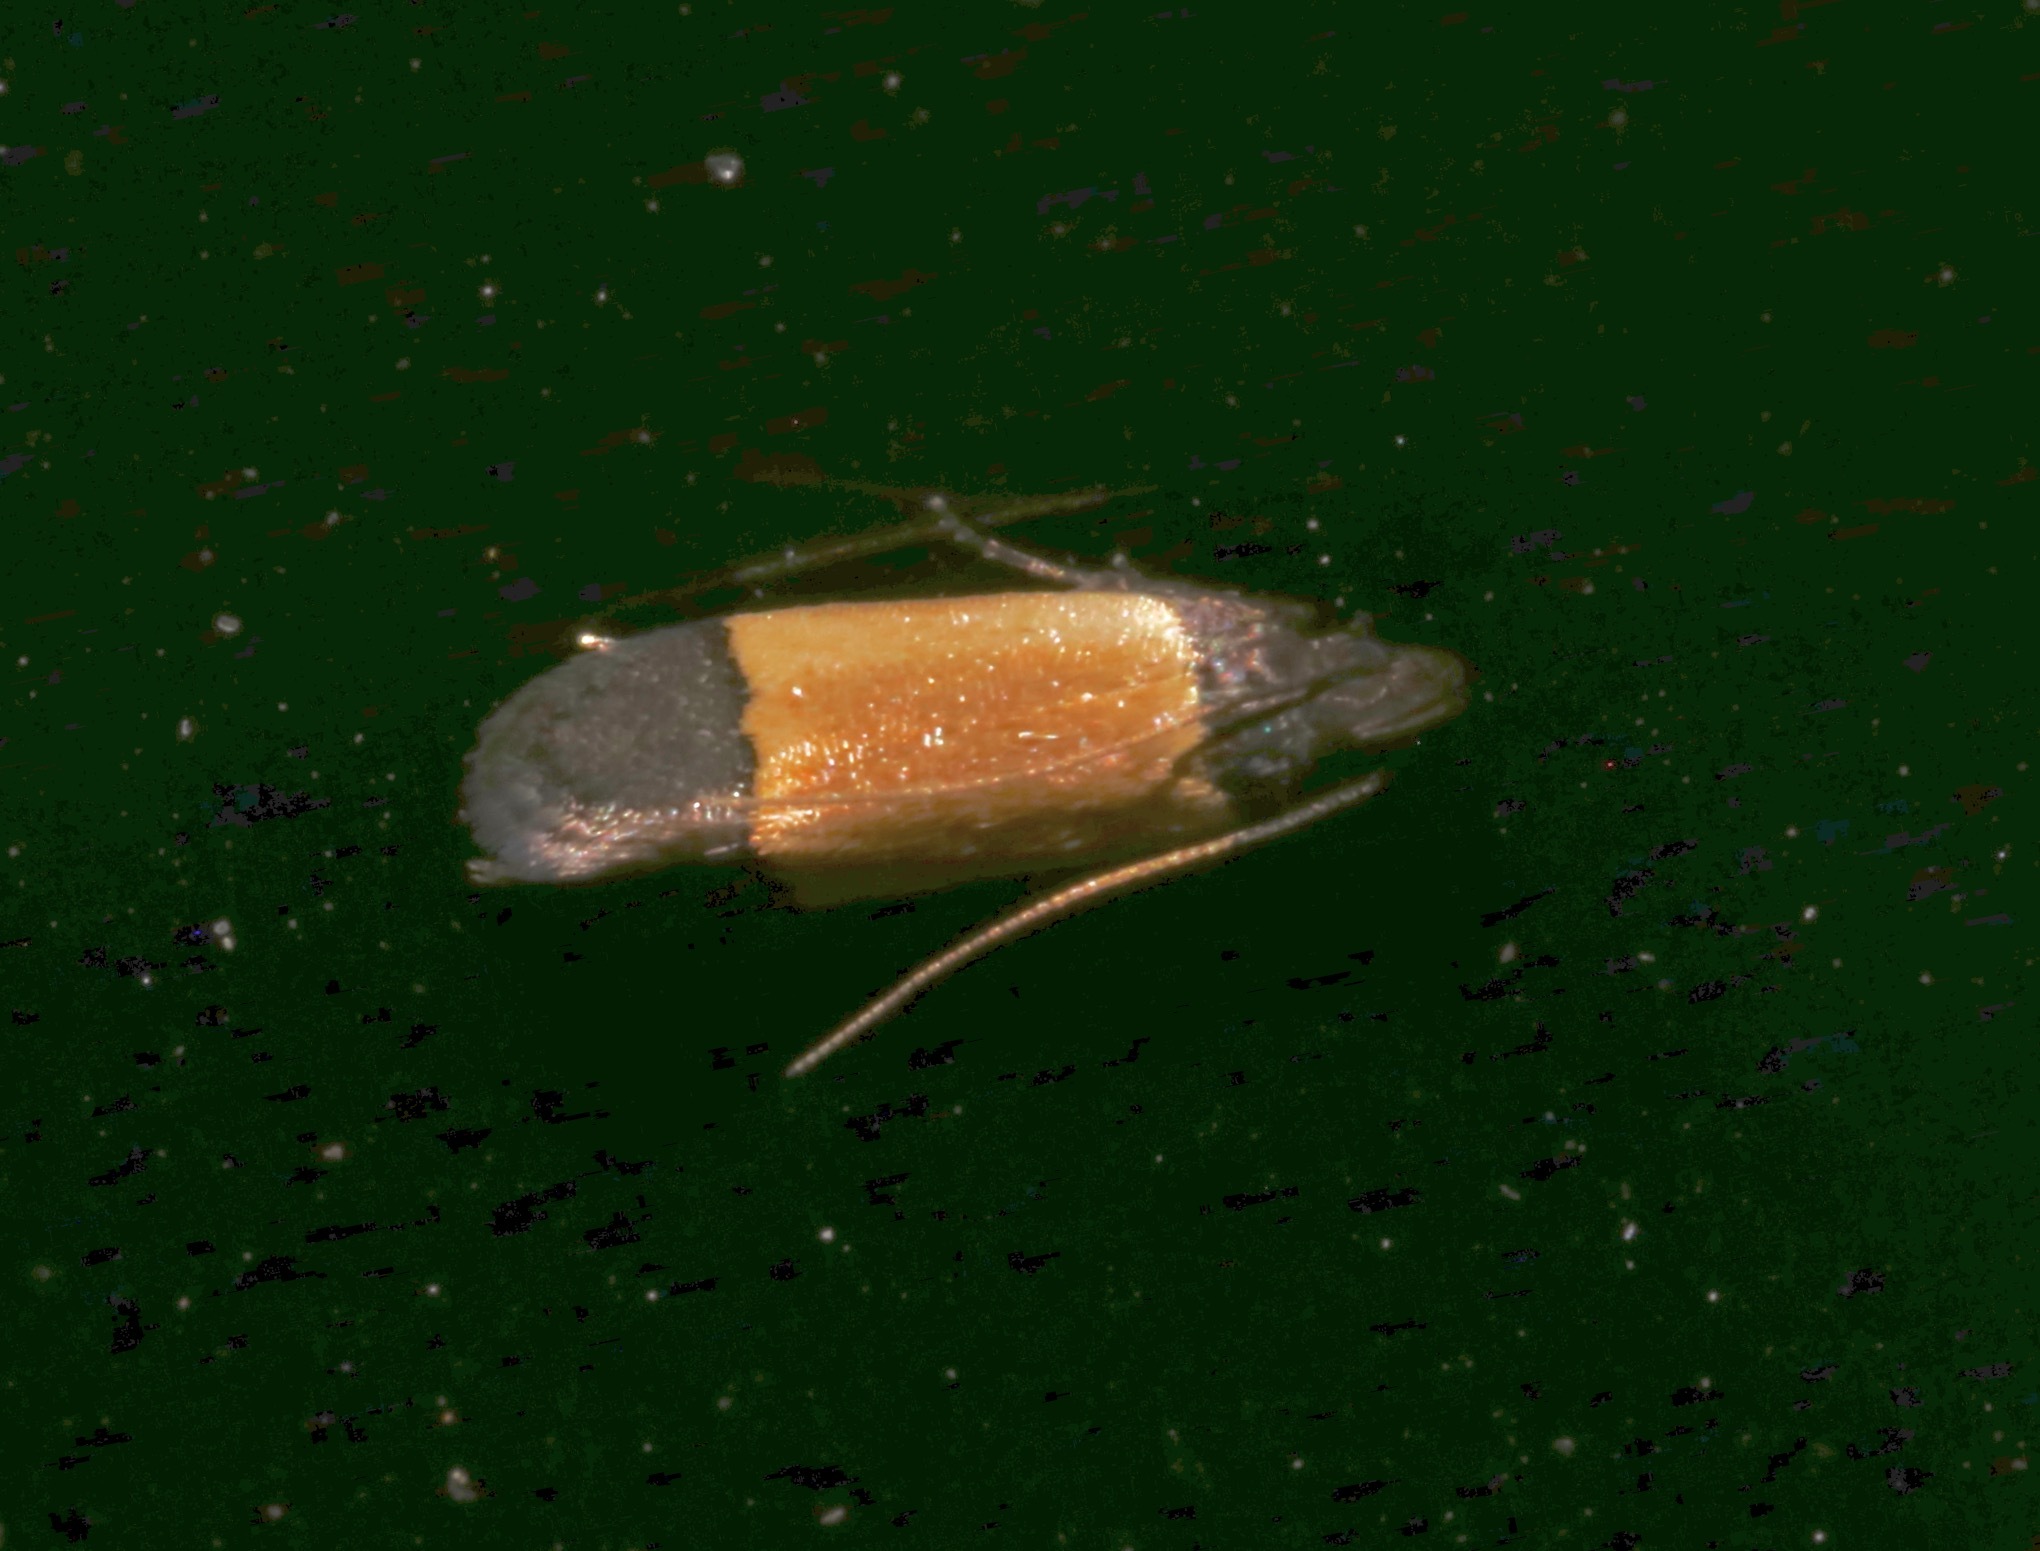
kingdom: Animalia
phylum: Arthropoda
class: Insecta
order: Lepidoptera
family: Gelechiidae
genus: Anacampsis
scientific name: Anacampsis coverdalella
